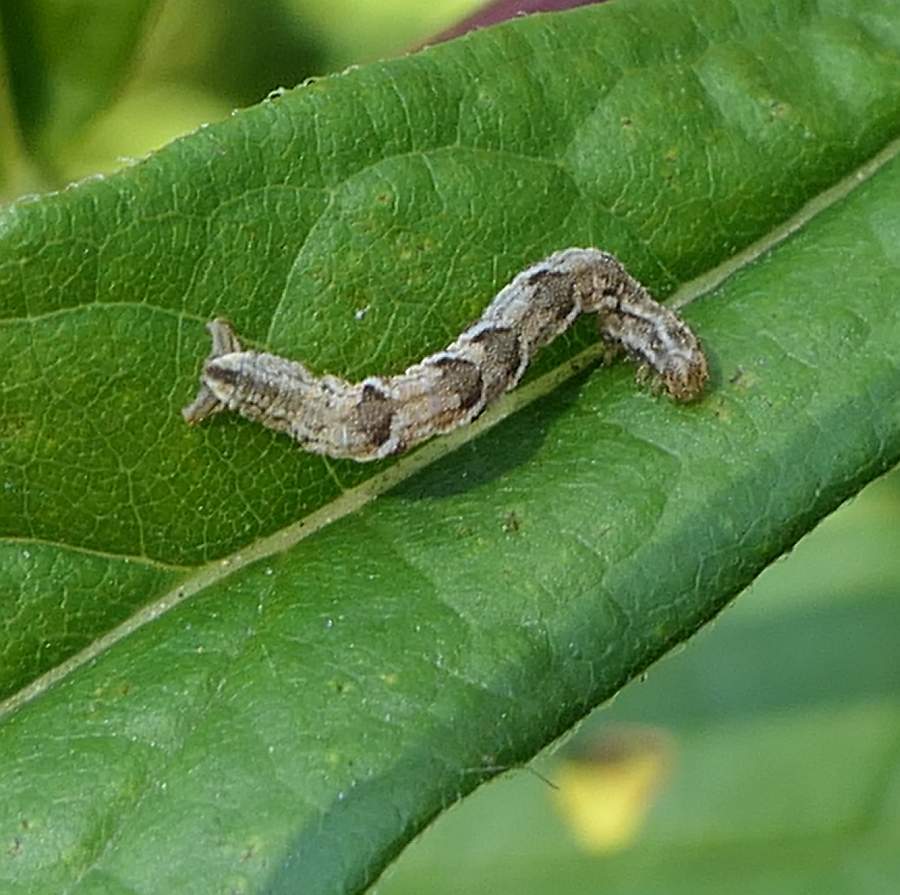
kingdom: Animalia
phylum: Arthropoda
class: Insecta
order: Lepidoptera
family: Geometridae
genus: Eupithecia
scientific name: Eupithecia subfuscata
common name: Grey pug
